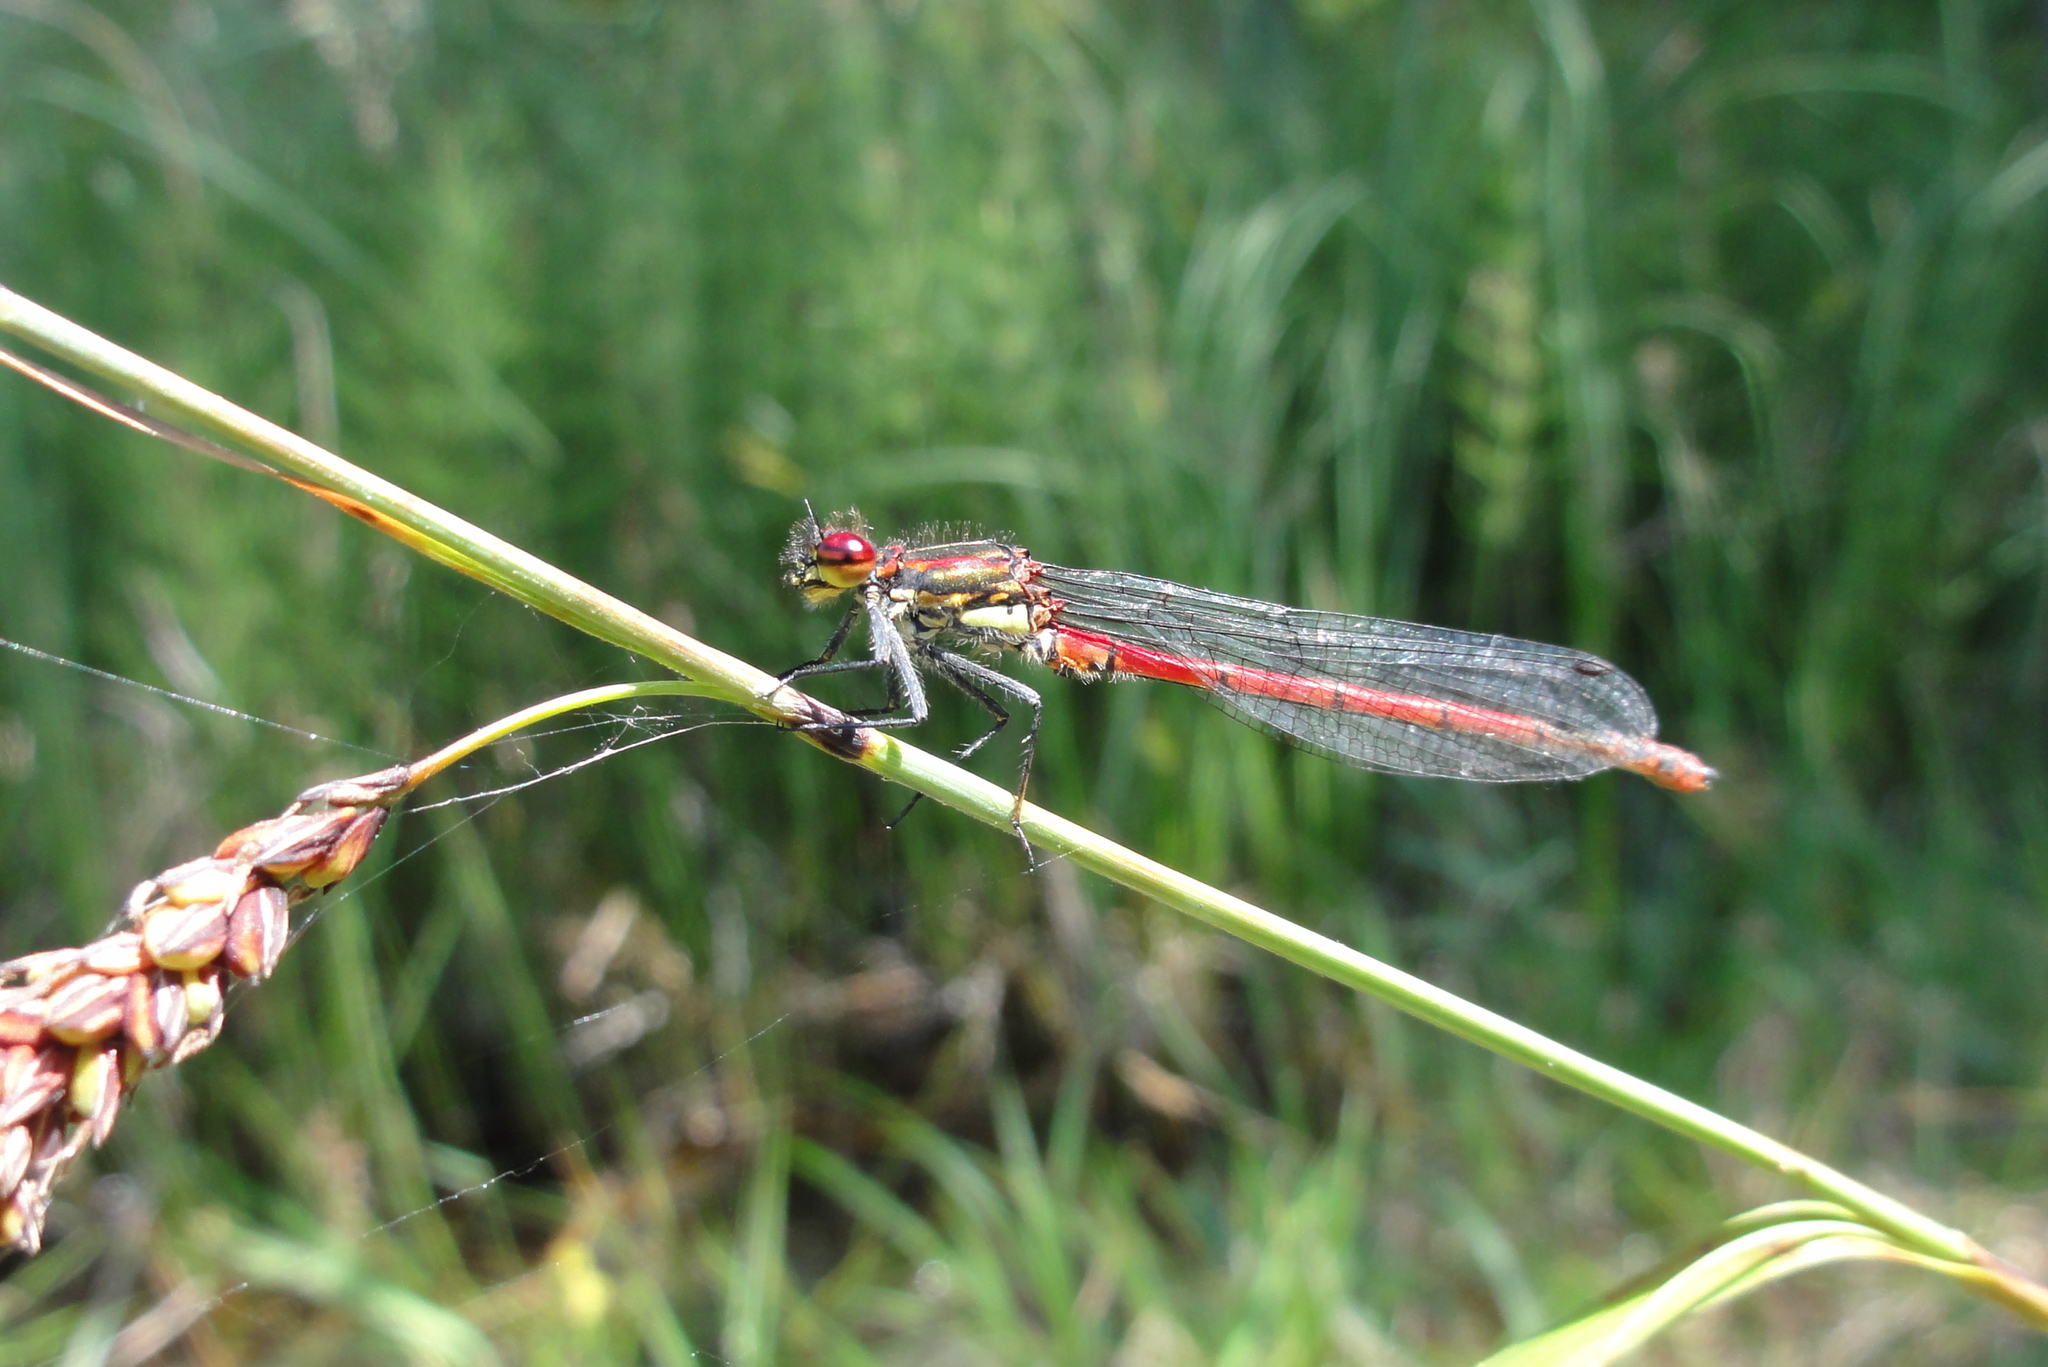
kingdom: Animalia
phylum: Arthropoda
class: Insecta
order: Odonata
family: Coenagrionidae
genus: Pyrrhosoma
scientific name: Pyrrhosoma nymphula
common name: Large red damsel
